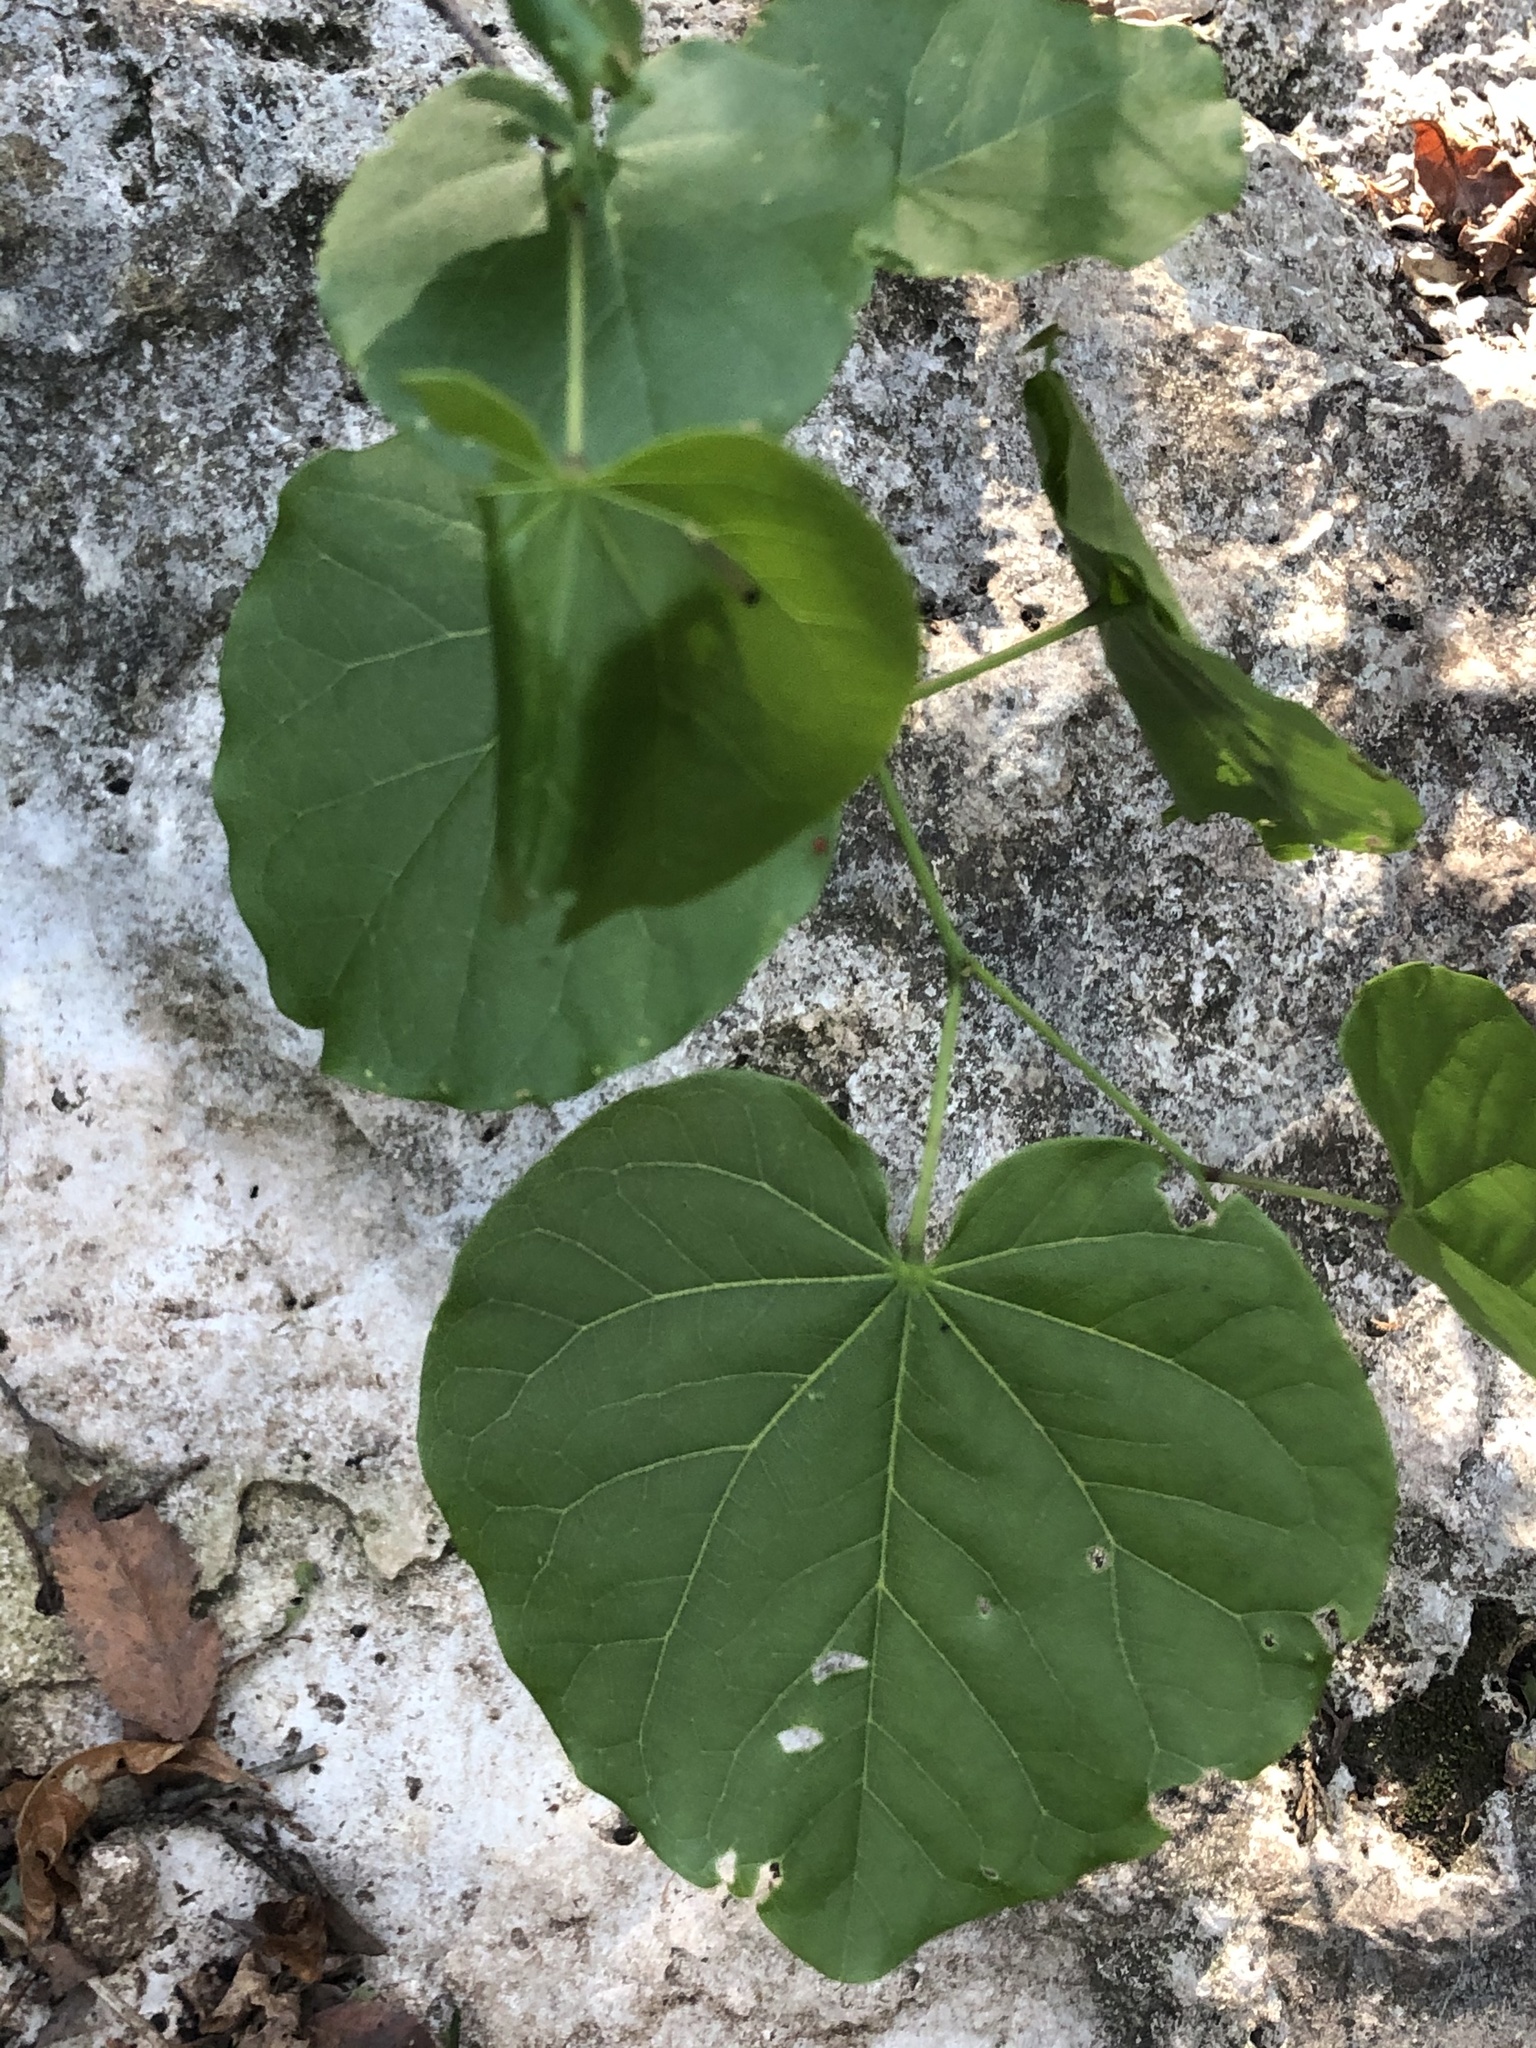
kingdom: Plantae
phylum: Tracheophyta
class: Magnoliopsida
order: Fabales
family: Fabaceae
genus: Cercis
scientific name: Cercis canadensis
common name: Eastern redbud
